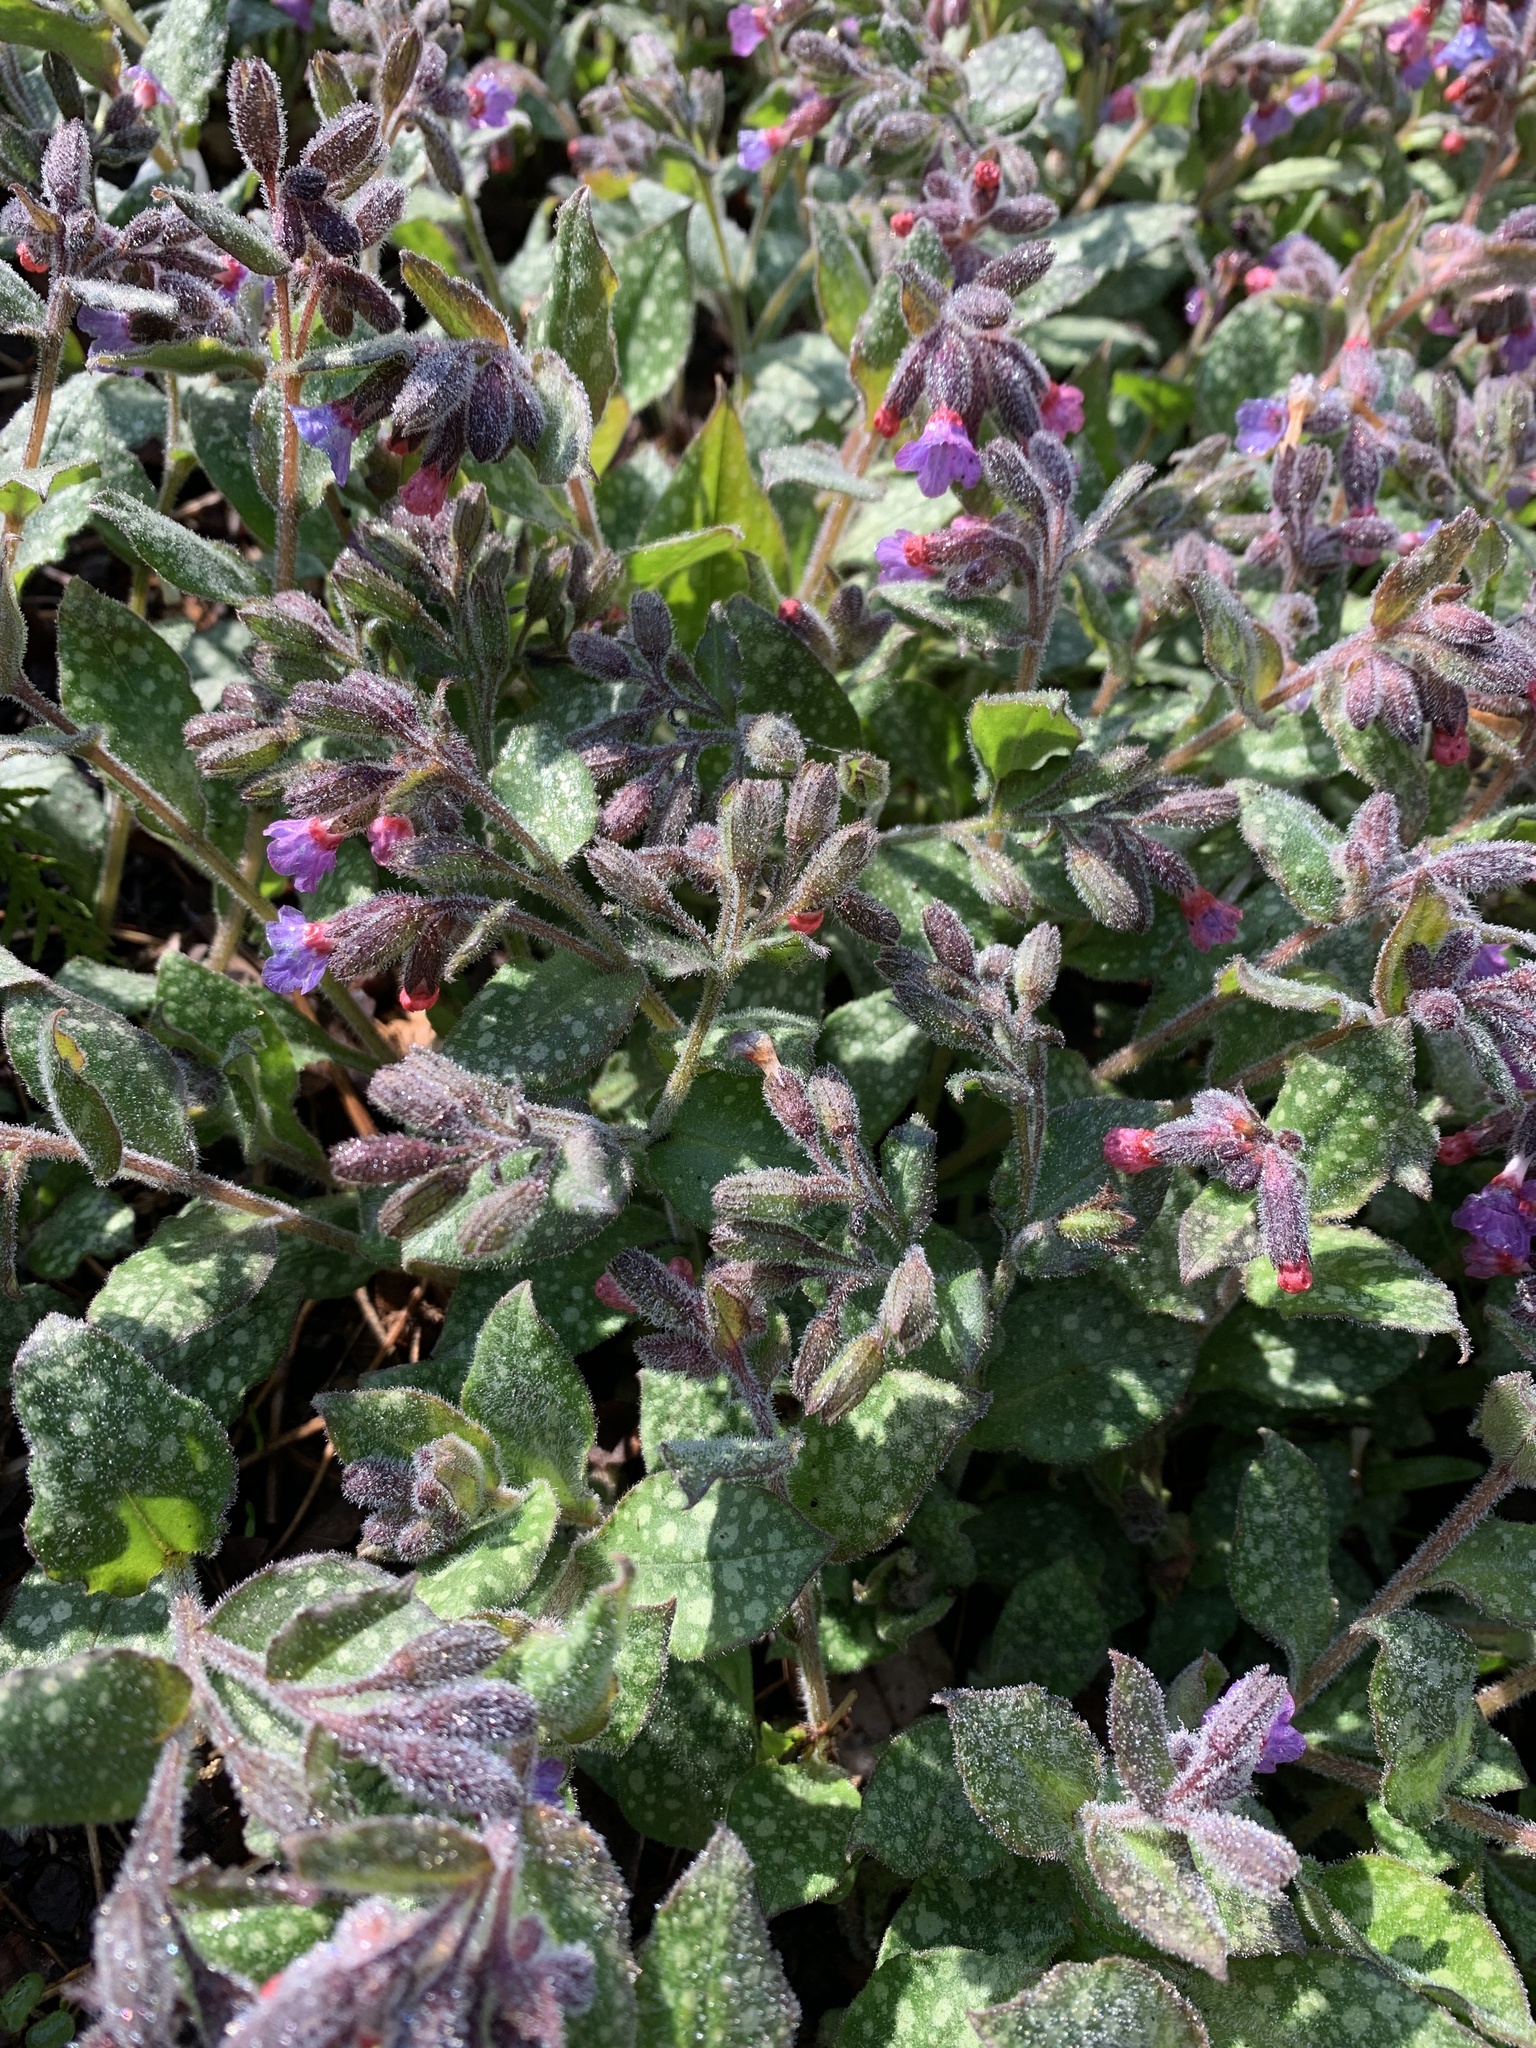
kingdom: Plantae
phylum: Tracheophyta
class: Magnoliopsida
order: Boraginales
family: Boraginaceae
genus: Pulmonaria
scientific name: Pulmonaria officinalis
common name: Lungwort
